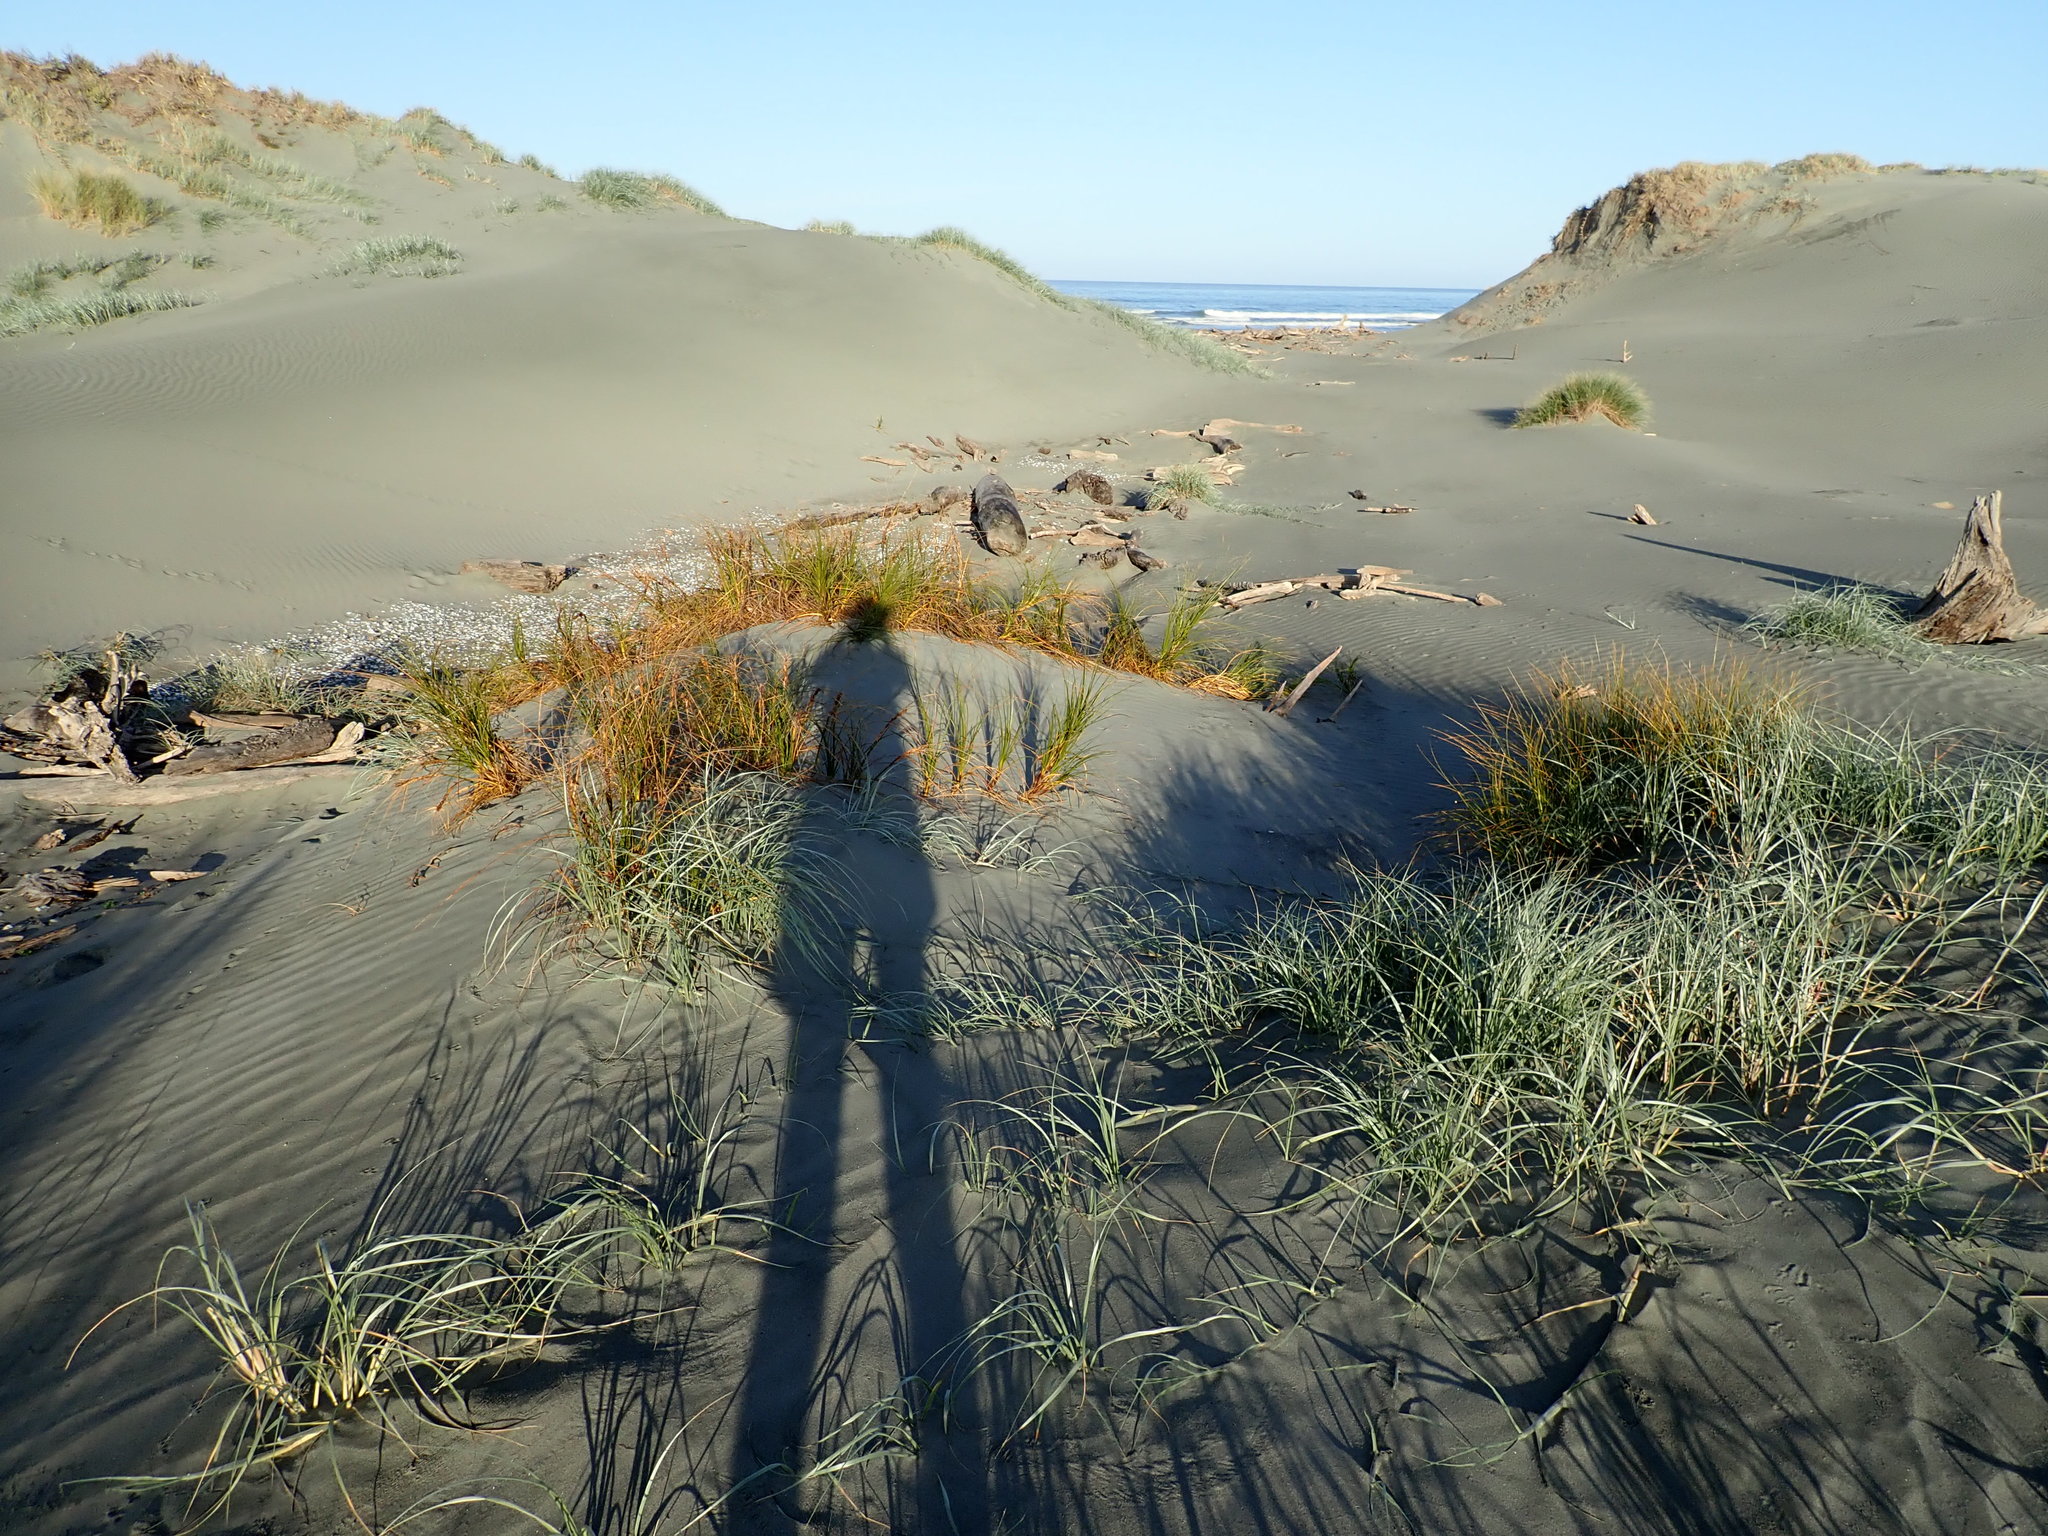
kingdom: Plantae
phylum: Tracheophyta
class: Liliopsida
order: Poales
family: Cyperaceae
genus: Ficinia
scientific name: Ficinia spiralis
